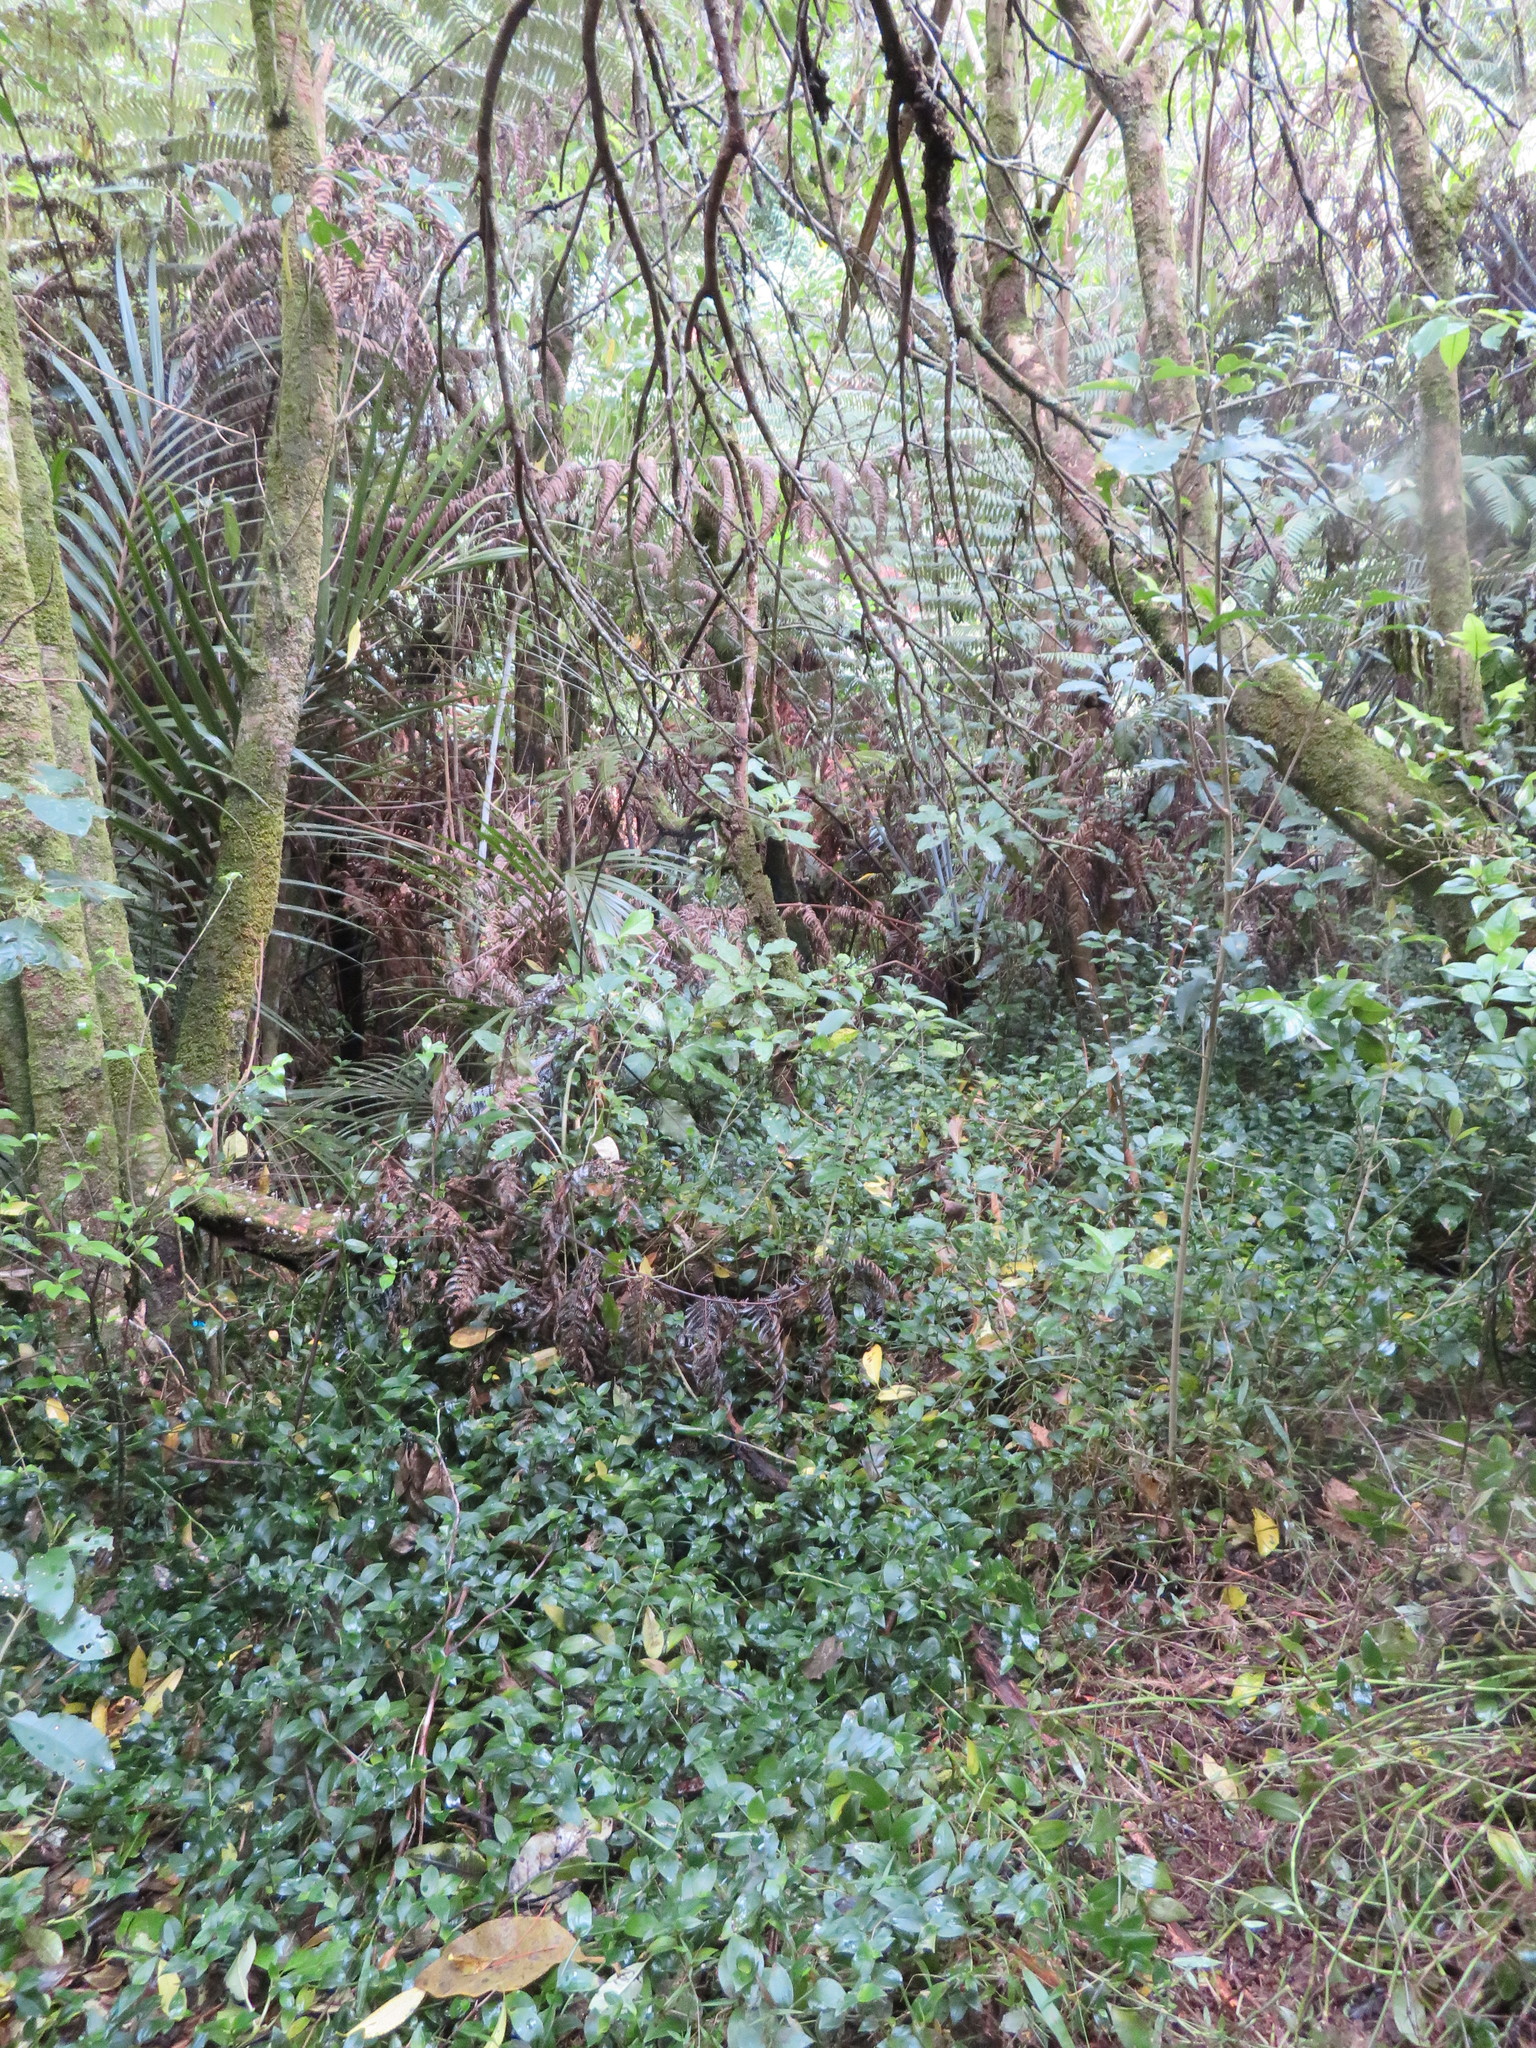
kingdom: Plantae
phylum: Tracheophyta
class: Liliopsida
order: Commelinales
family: Commelinaceae
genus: Tradescantia
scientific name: Tradescantia fluminensis
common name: Wandering-jew
